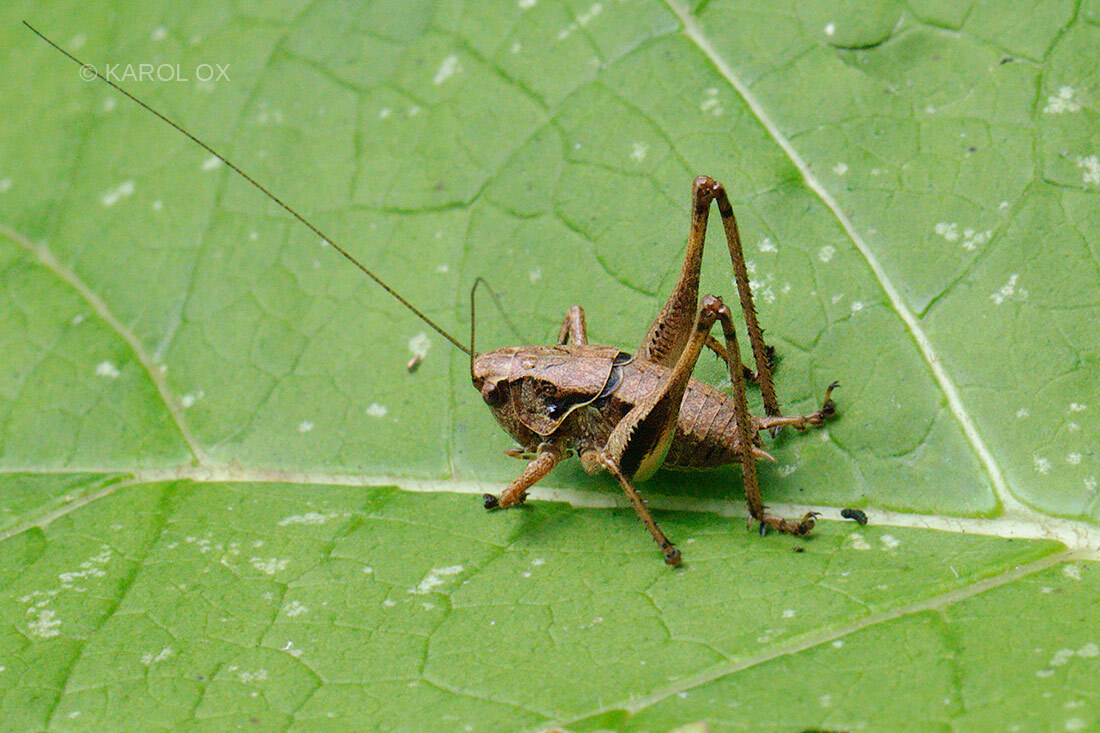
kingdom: Animalia
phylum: Arthropoda
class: Insecta
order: Orthoptera
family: Tettigoniidae
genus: Pholidoptera
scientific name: Pholidoptera griseoaptera
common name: Dark bush-cricket
